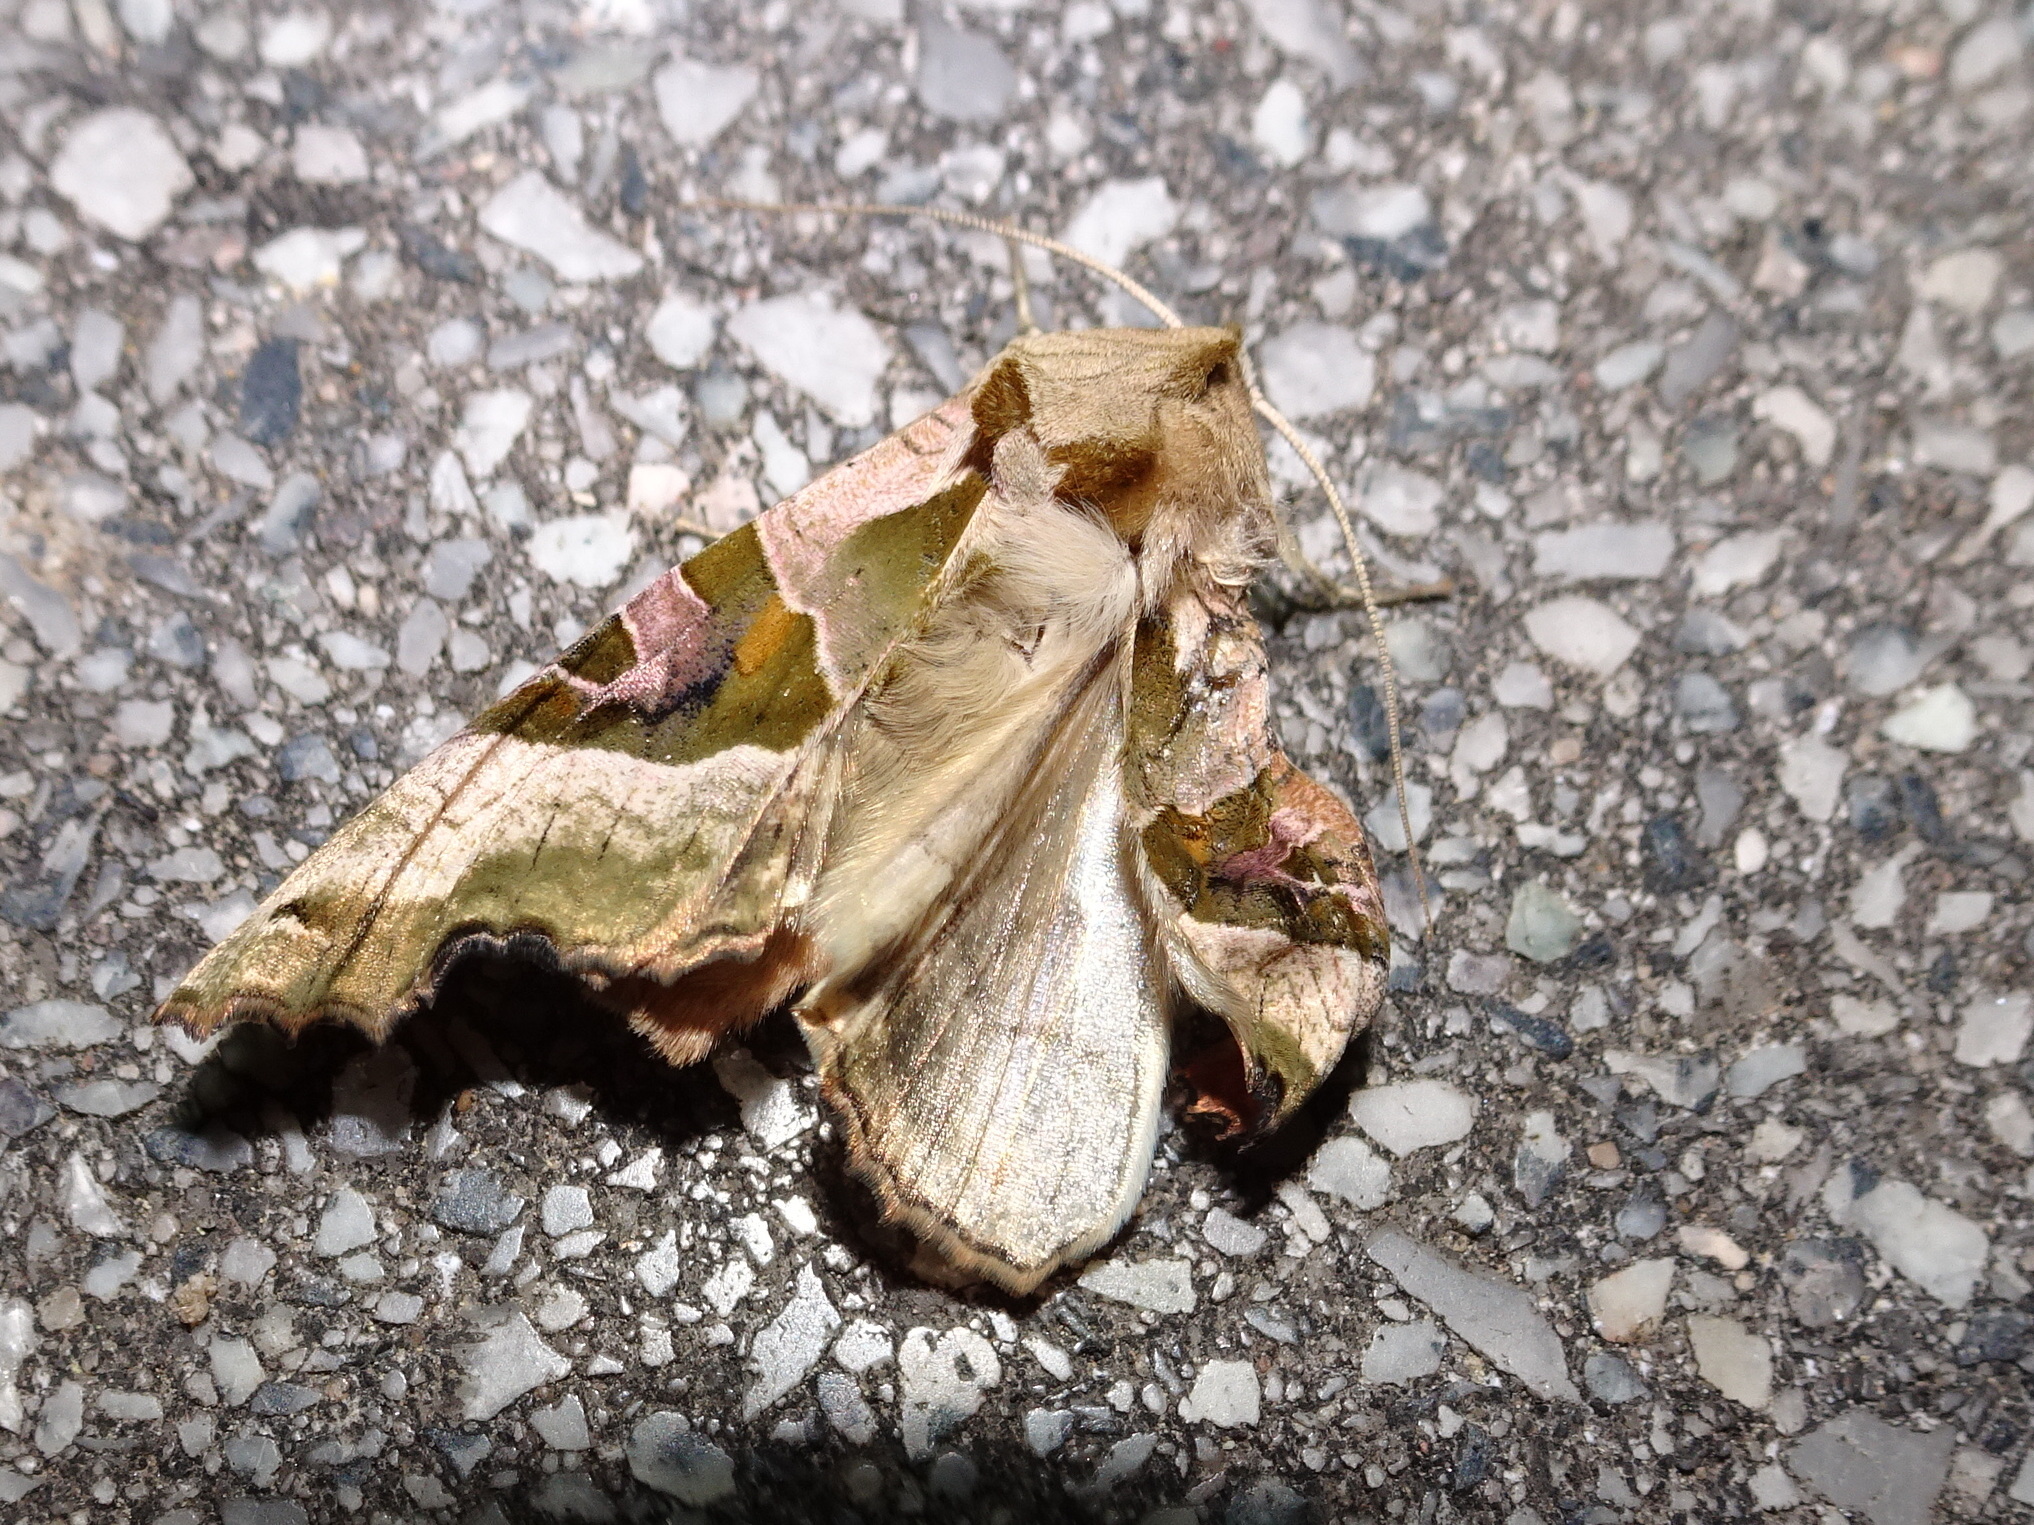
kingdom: Animalia
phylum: Arthropoda
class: Insecta
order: Lepidoptera
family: Noctuidae
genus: Phlogophora
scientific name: Phlogophora meticulosa
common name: Angle shades
